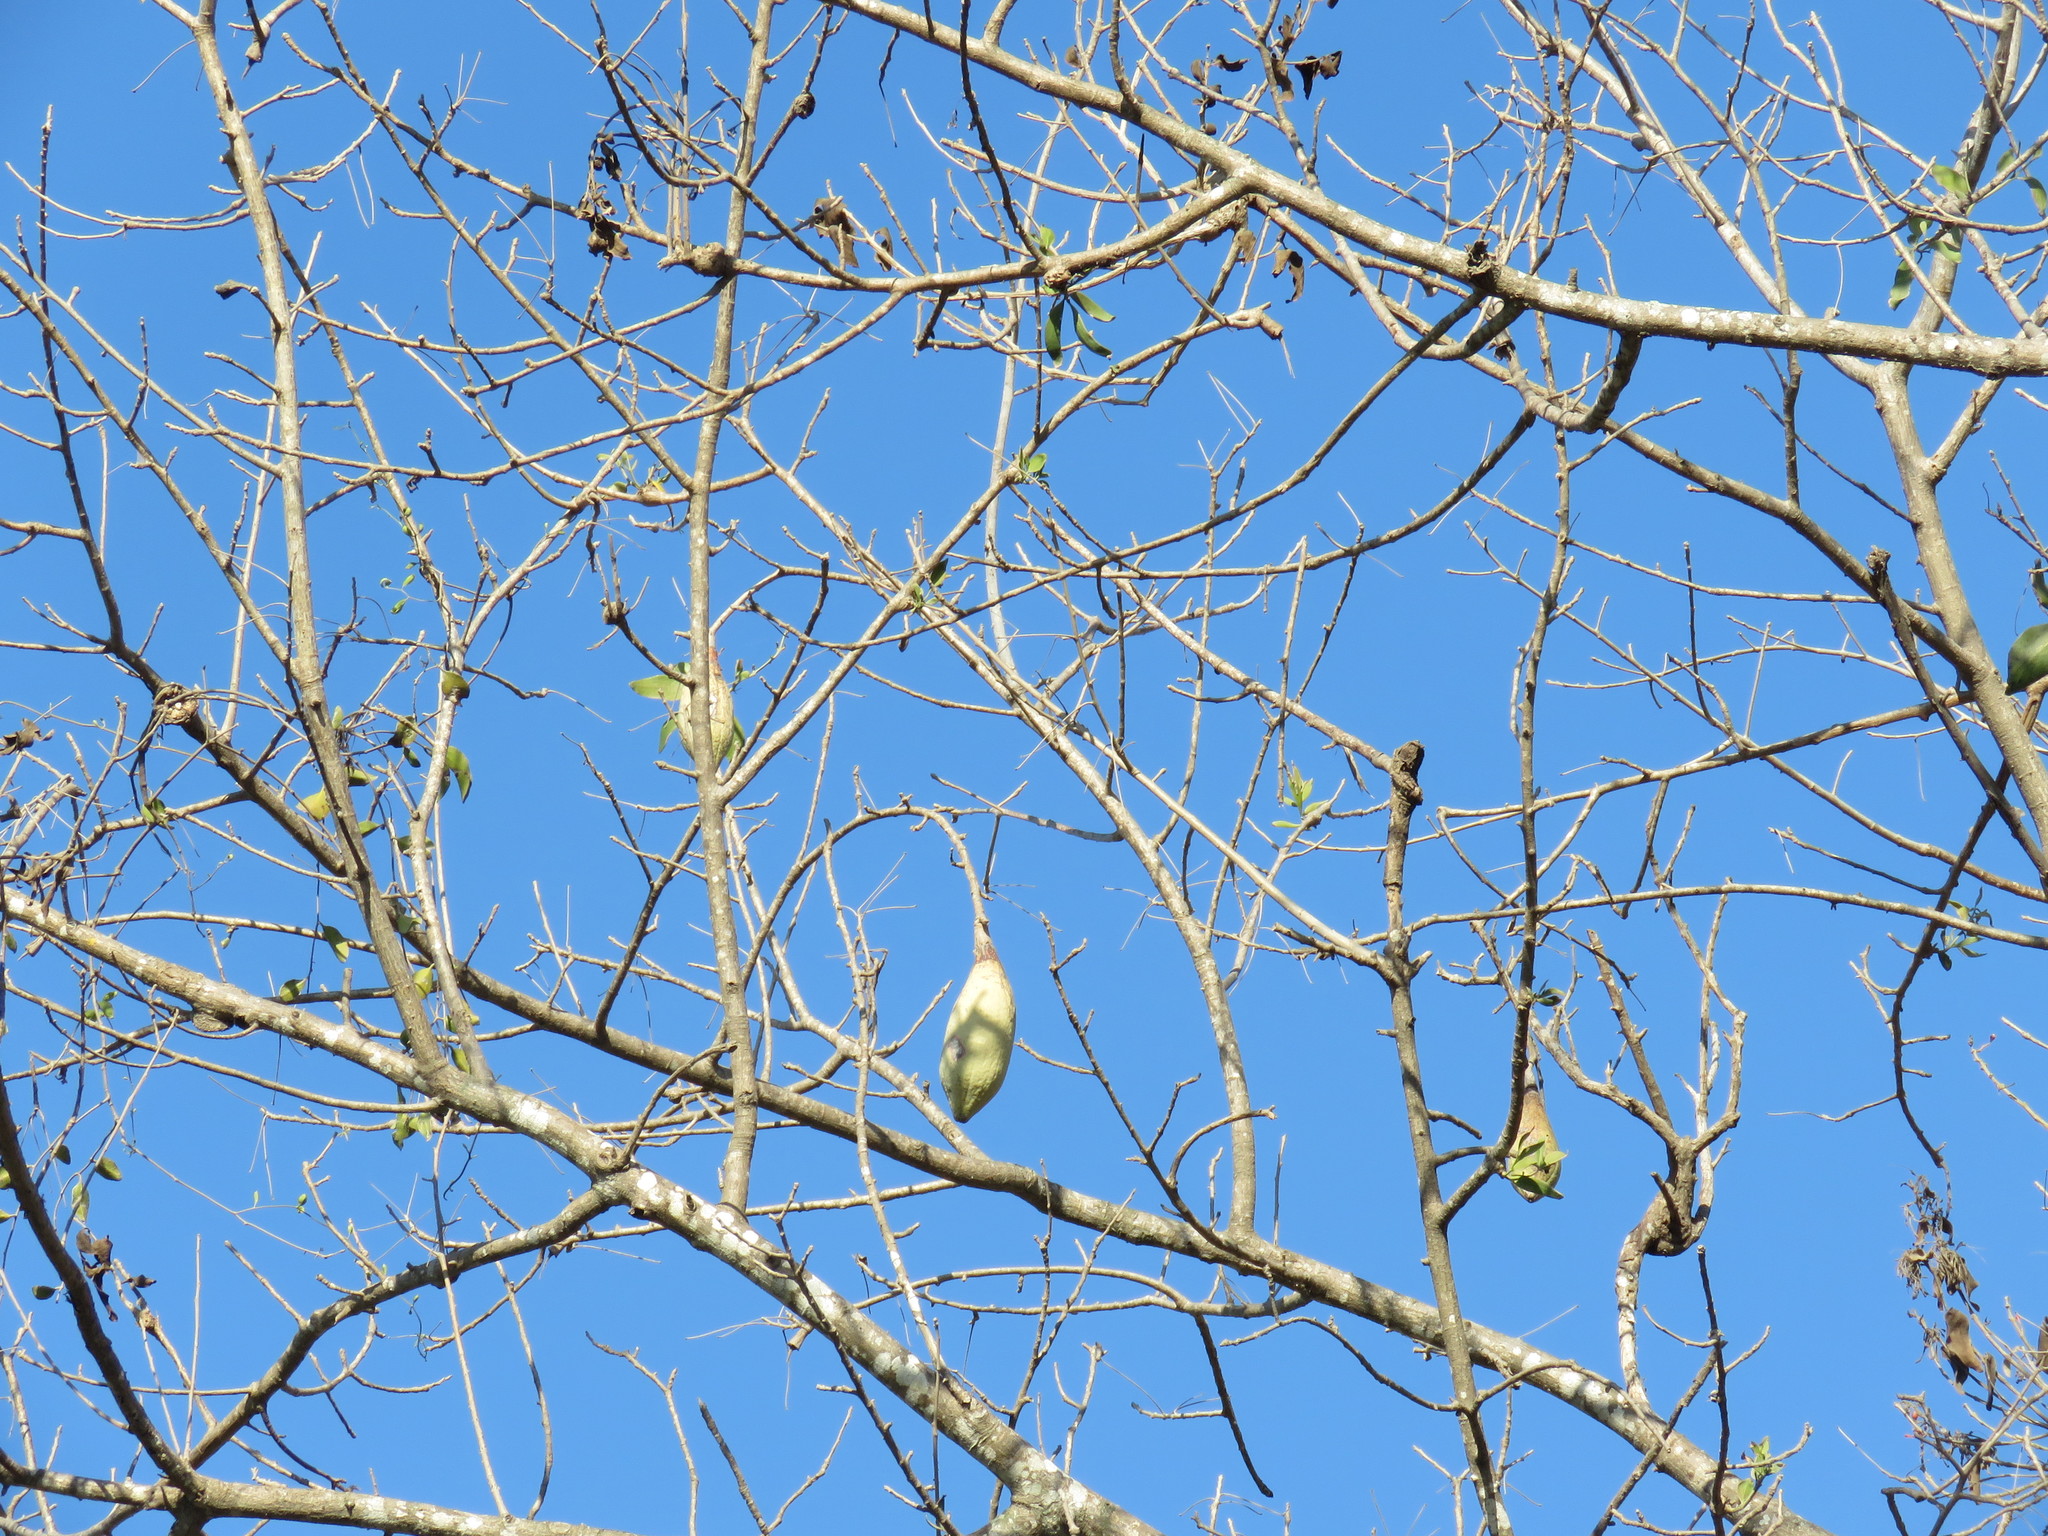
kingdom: Plantae
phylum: Tracheophyta
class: Magnoliopsida
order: Malvales
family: Malvaceae
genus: Ceiba
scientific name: Ceiba aesculifolia
